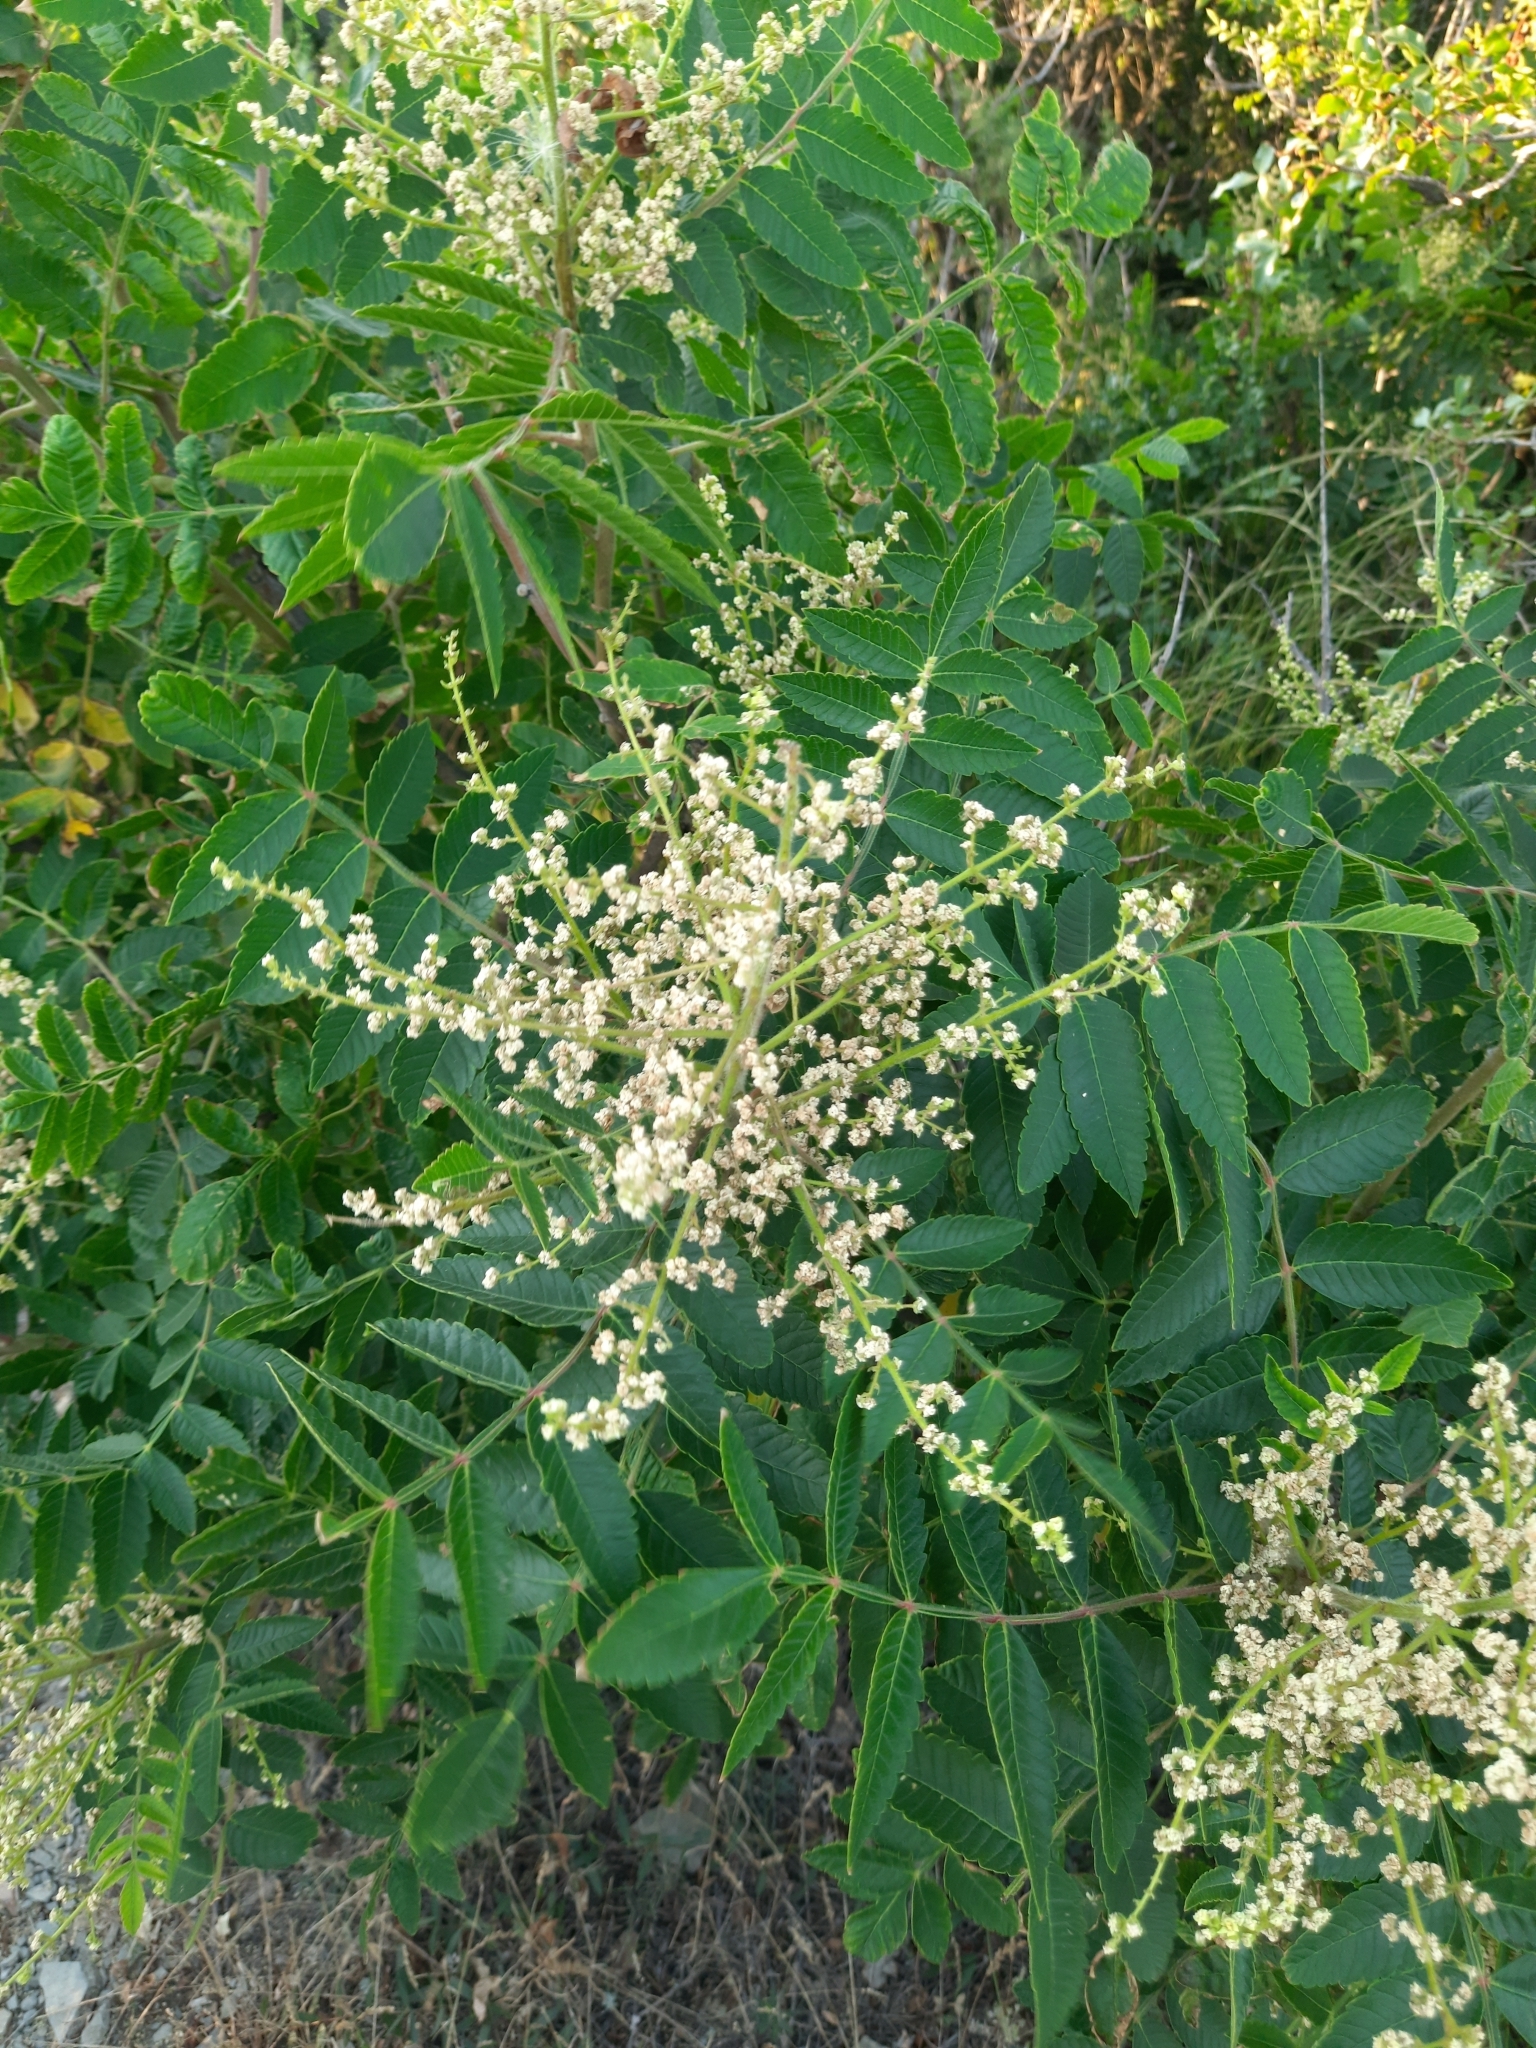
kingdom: Plantae
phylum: Tracheophyta
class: Magnoliopsida
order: Sapindales
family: Anacardiaceae
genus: Rhus
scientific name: Rhus coriaria
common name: Tanner's sumach
